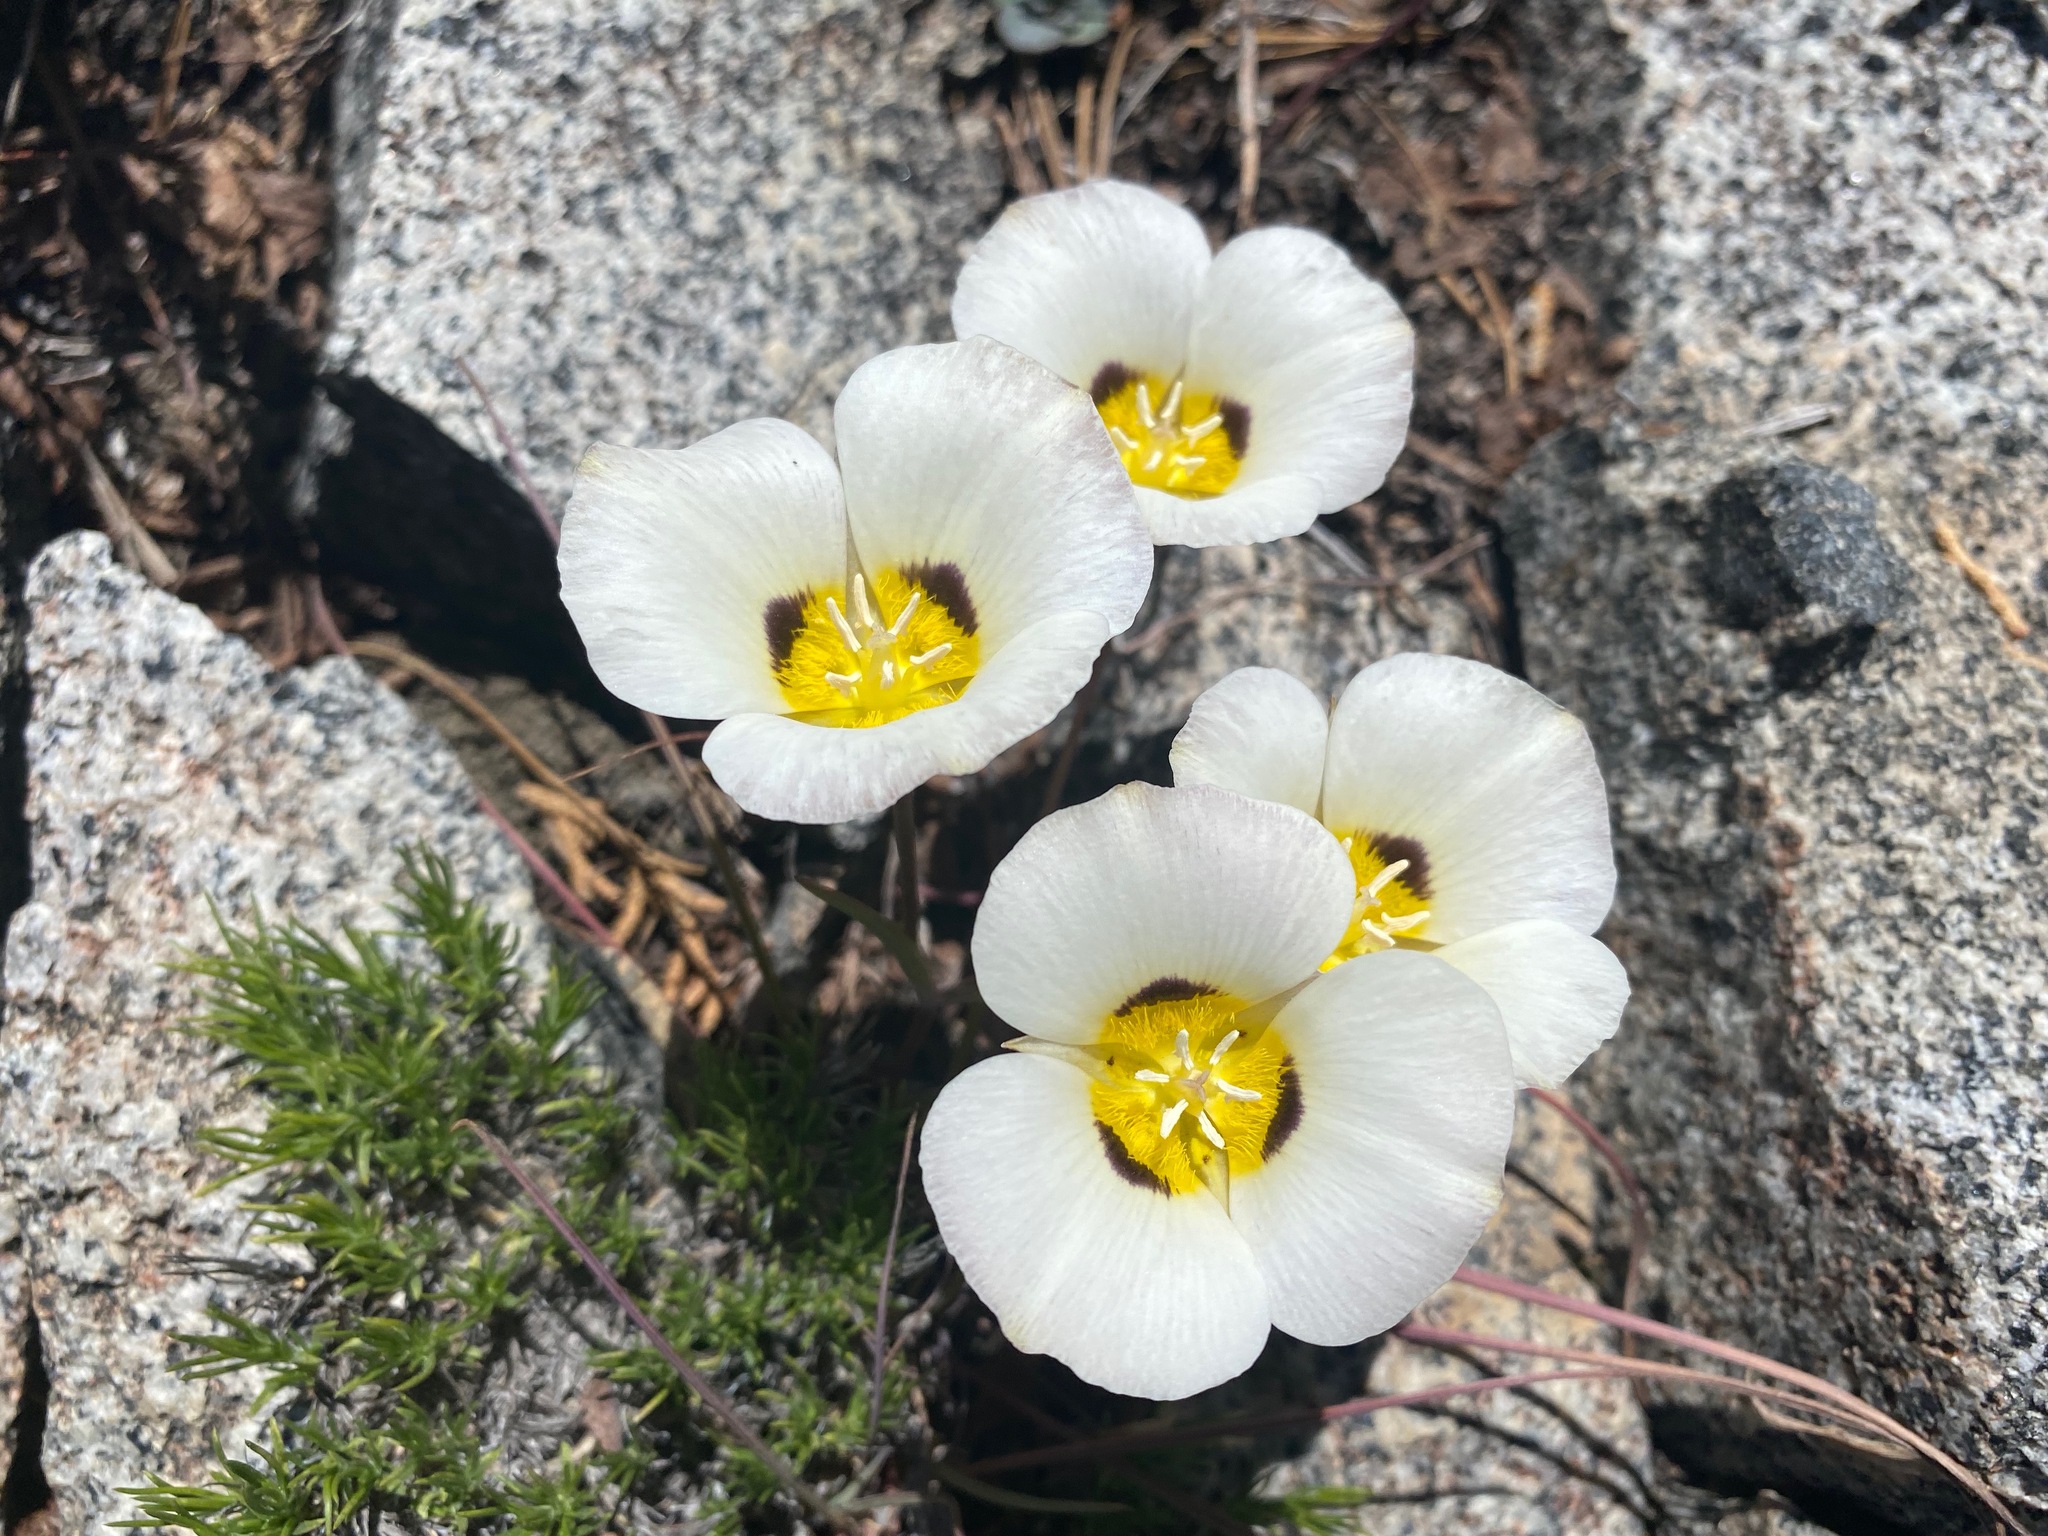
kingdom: Plantae
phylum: Tracheophyta
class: Liliopsida
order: Liliales
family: Liliaceae
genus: Calochortus
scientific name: Calochortus leichtlinii
